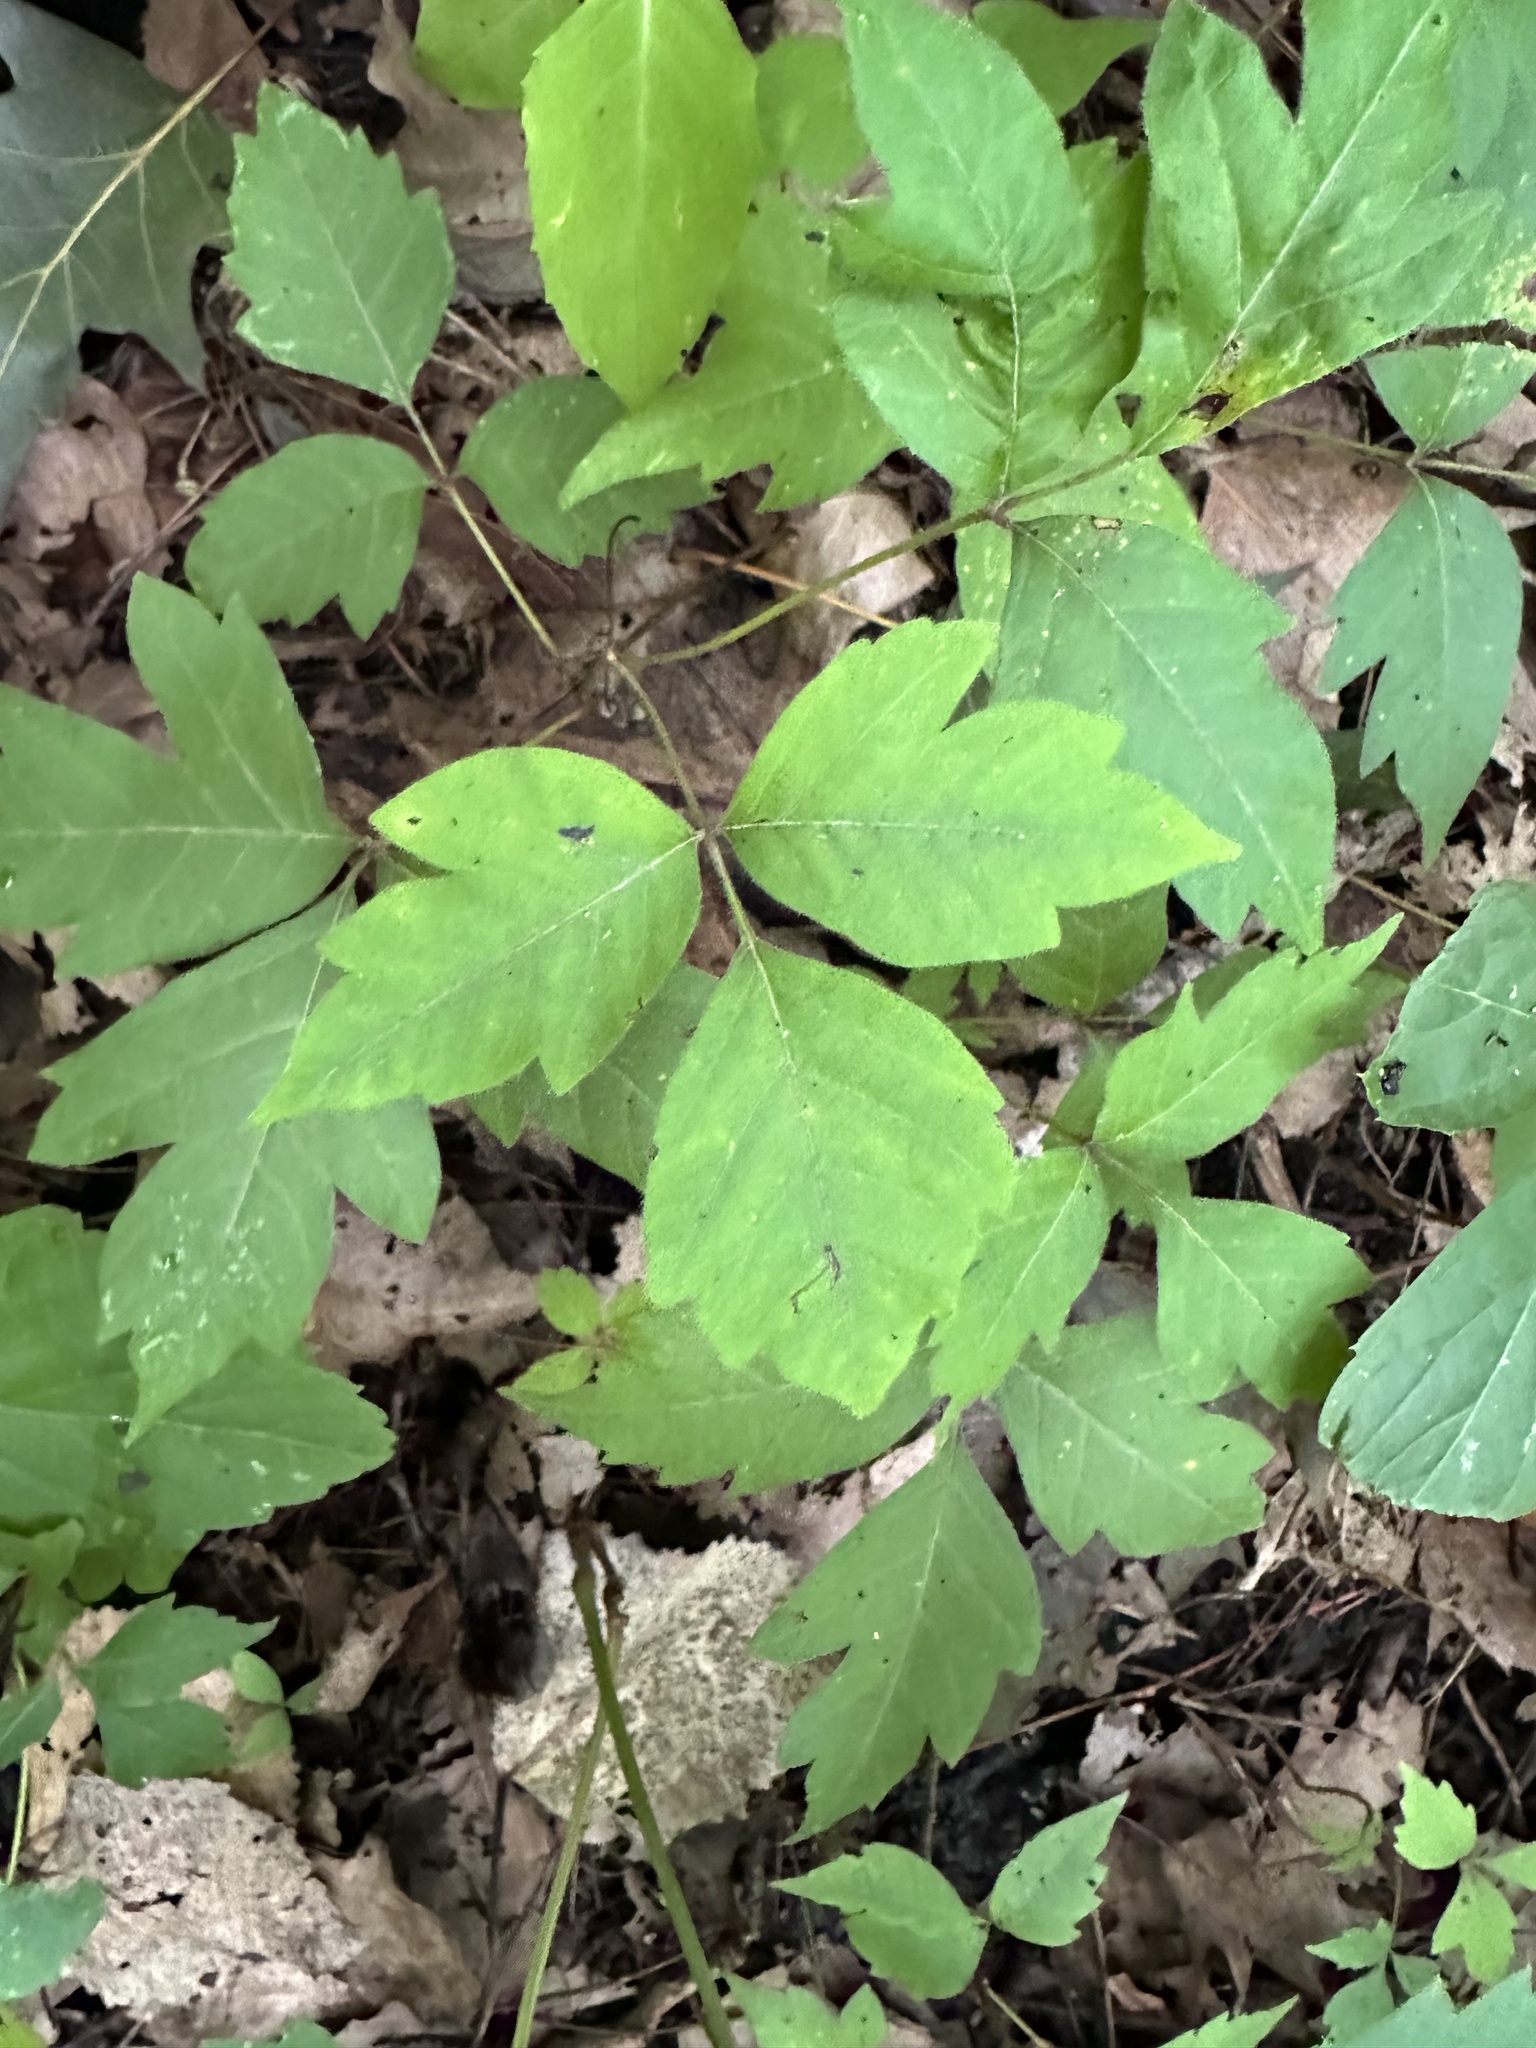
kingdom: Plantae
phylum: Tracheophyta
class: Magnoliopsida
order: Sapindales
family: Anacardiaceae
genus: Toxicodendron
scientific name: Toxicodendron radicans
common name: Poison ivy
